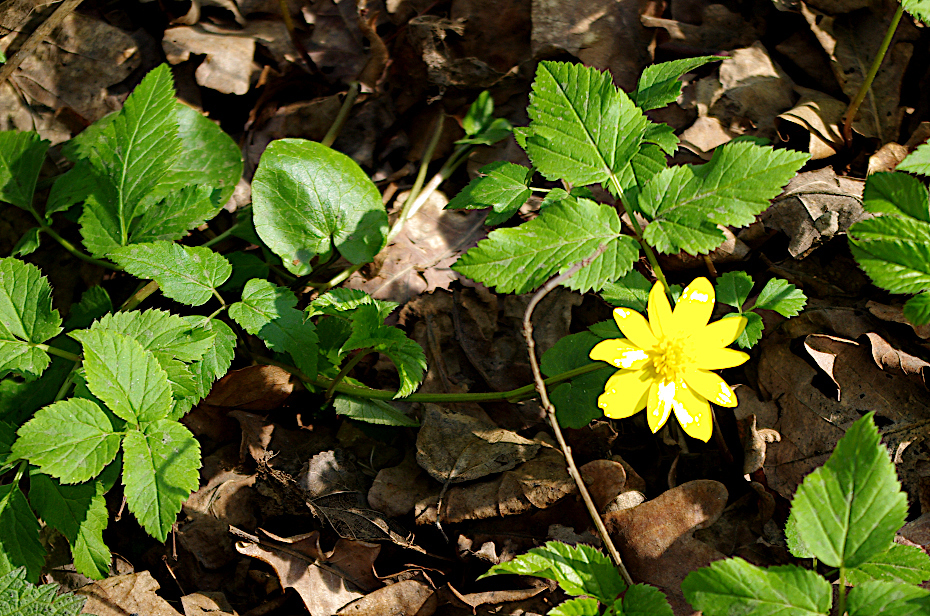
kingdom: Plantae
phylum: Tracheophyta
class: Magnoliopsida
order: Ranunculales
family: Ranunculaceae
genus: Ficaria
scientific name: Ficaria verna
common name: Lesser celandine
